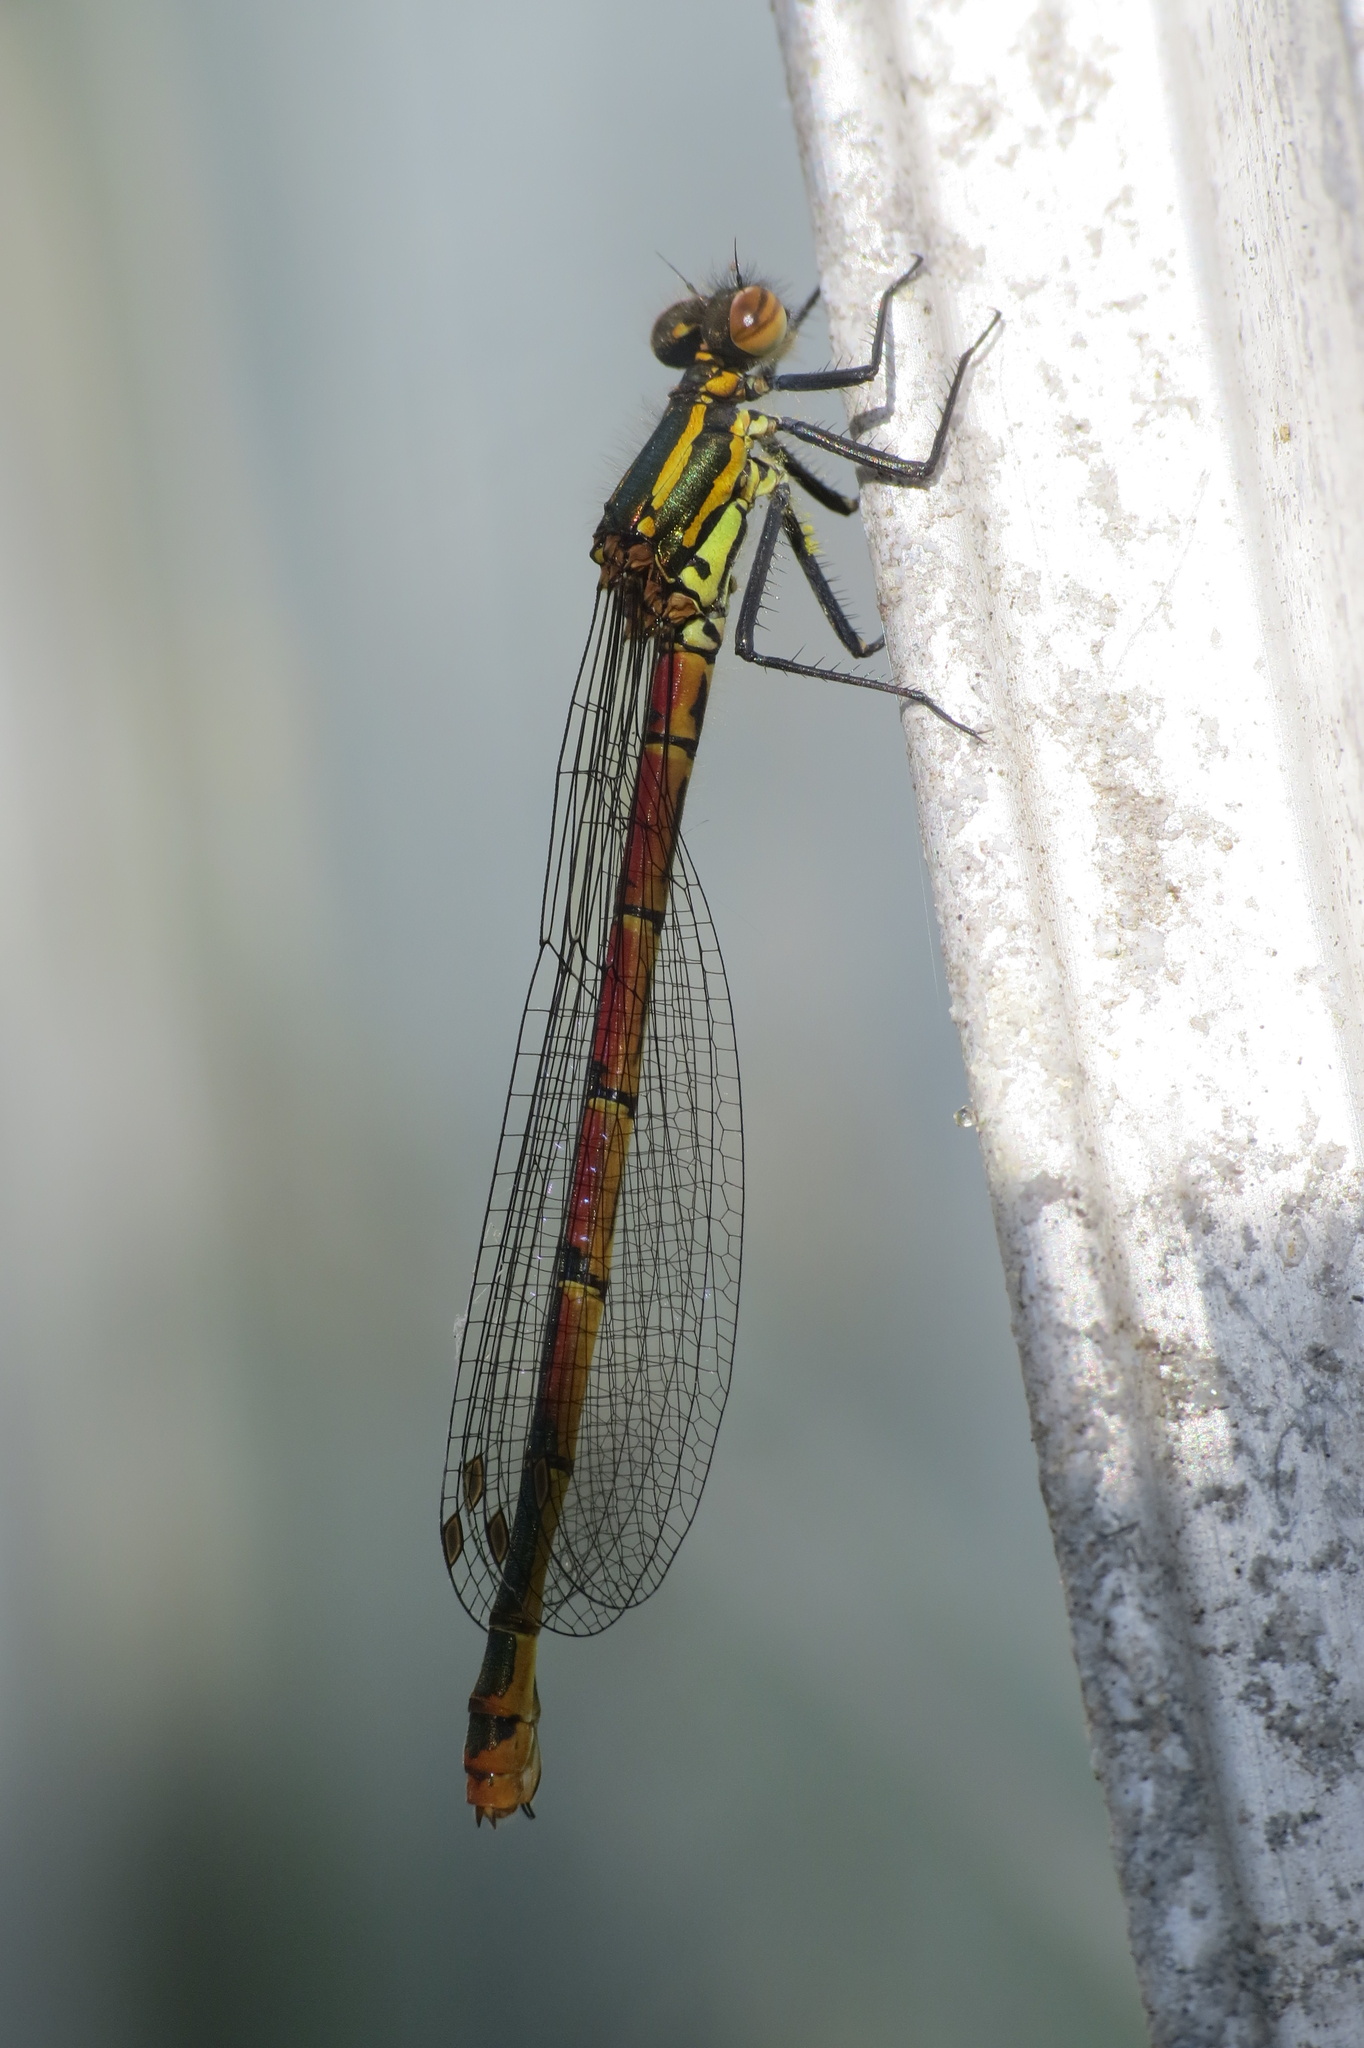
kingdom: Animalia
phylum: Arthropoda
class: Insecta
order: Odonata
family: Coenagrionidae
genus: Pyrrhosoma
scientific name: Pyrrhosoma nymphula
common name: Large red damsel
